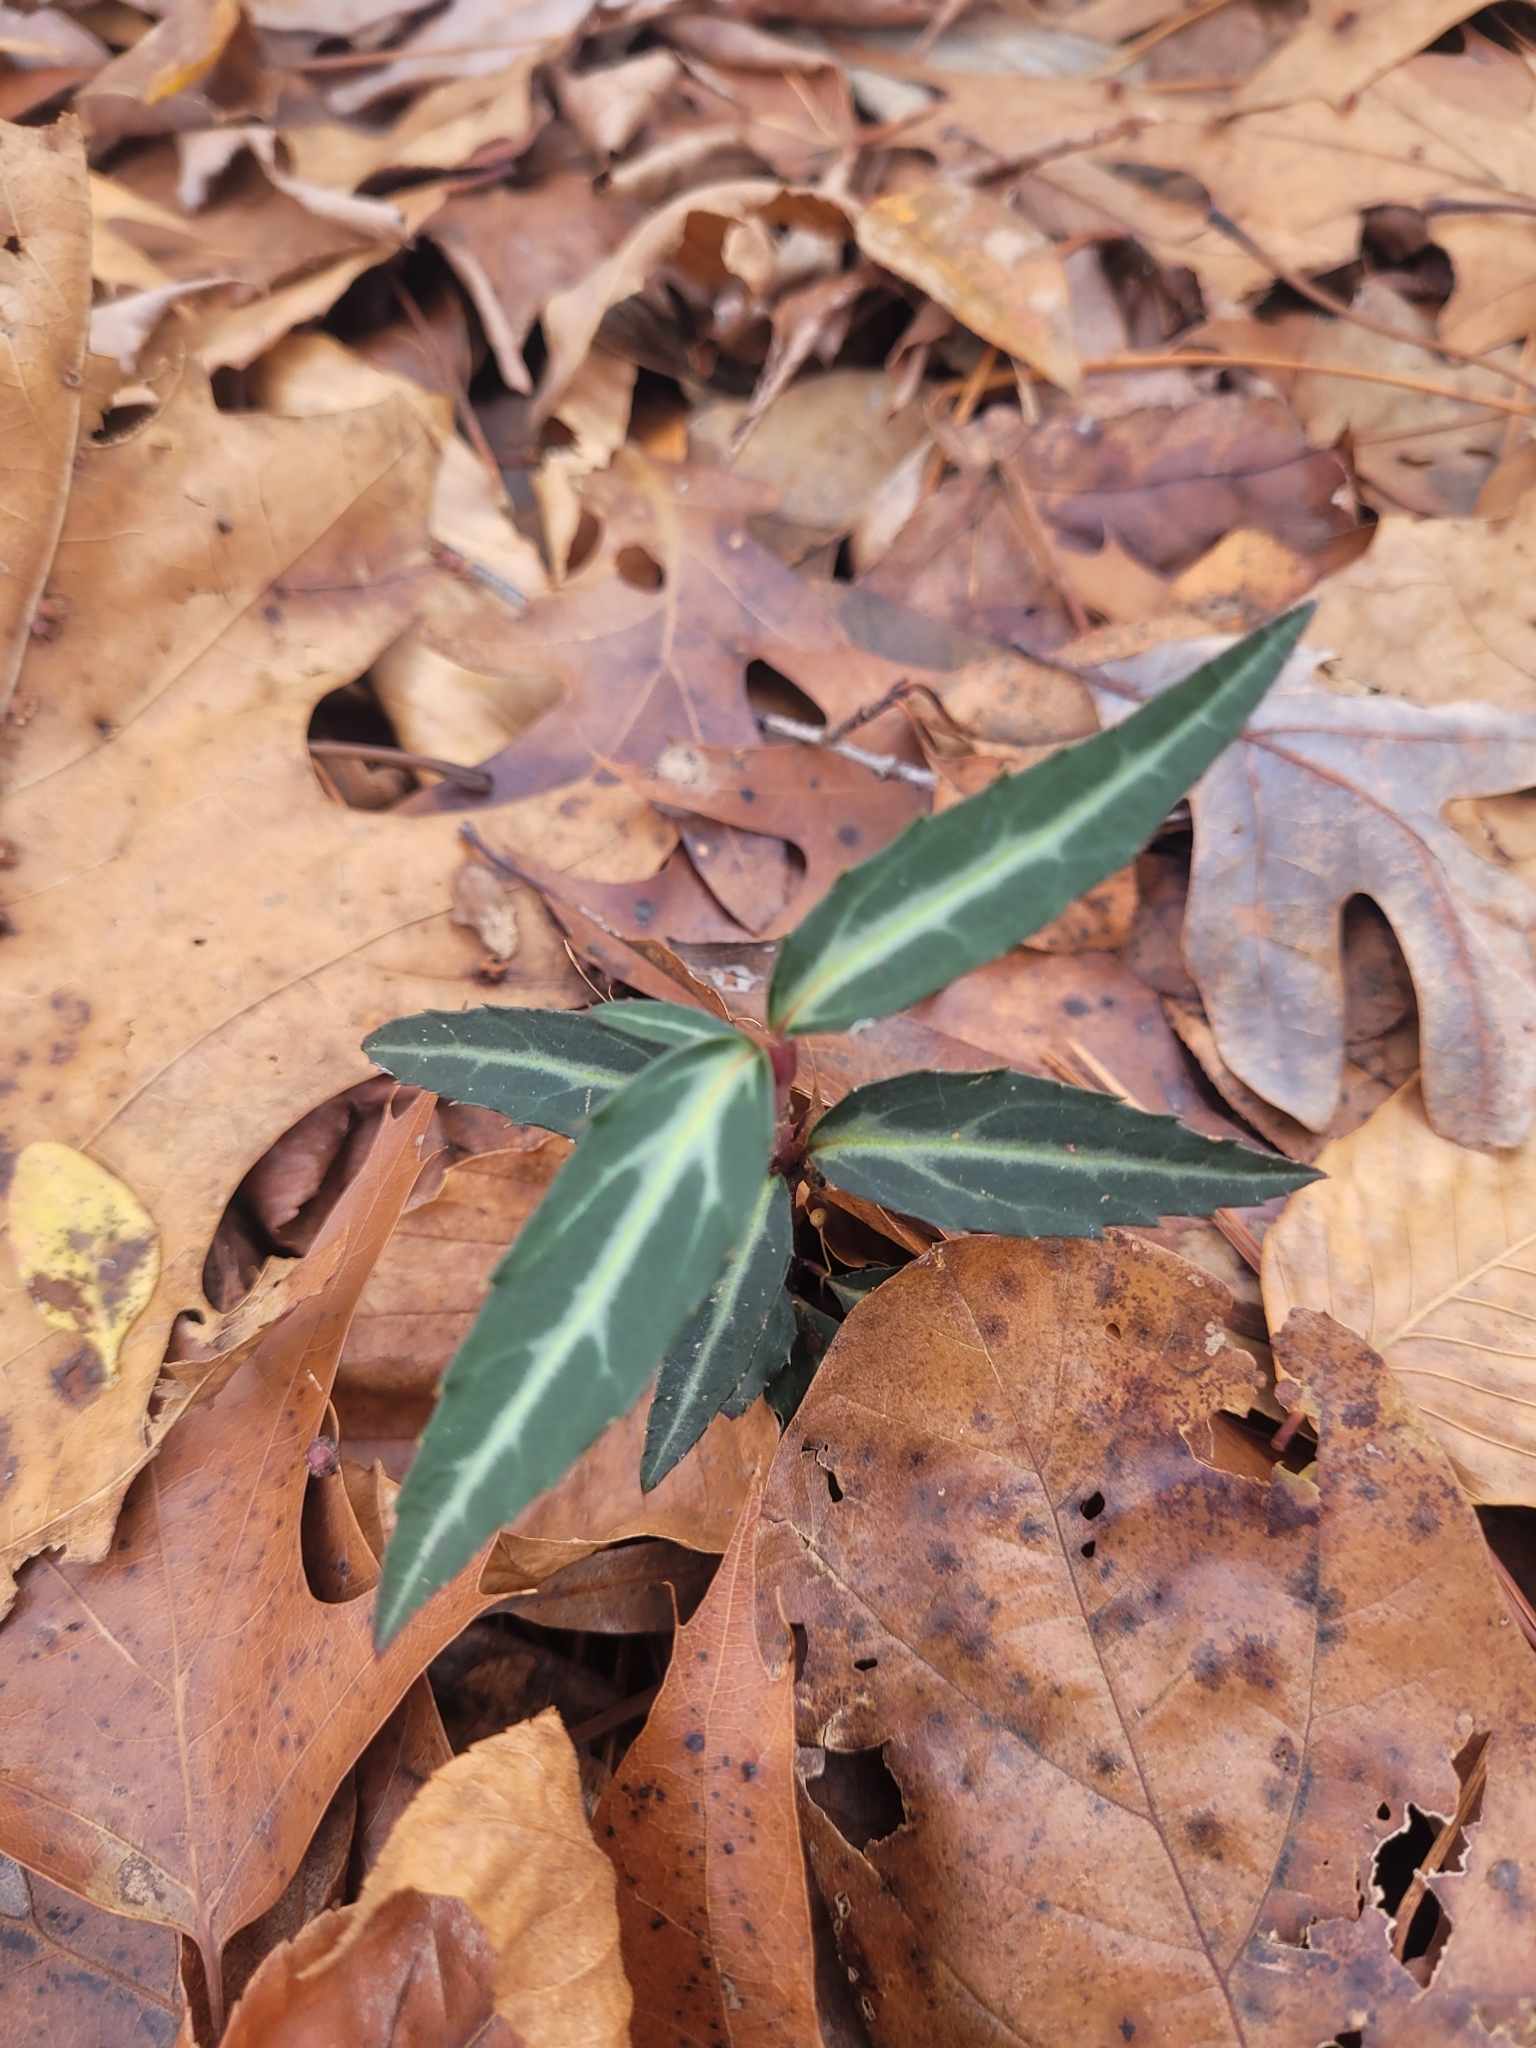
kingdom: Plantae
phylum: Tracheophyta
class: Magnoliopsida
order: Ericales
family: Ericaceae
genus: Chimaphila
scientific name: Chimaphila maculata
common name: Spotted pipsissewa
